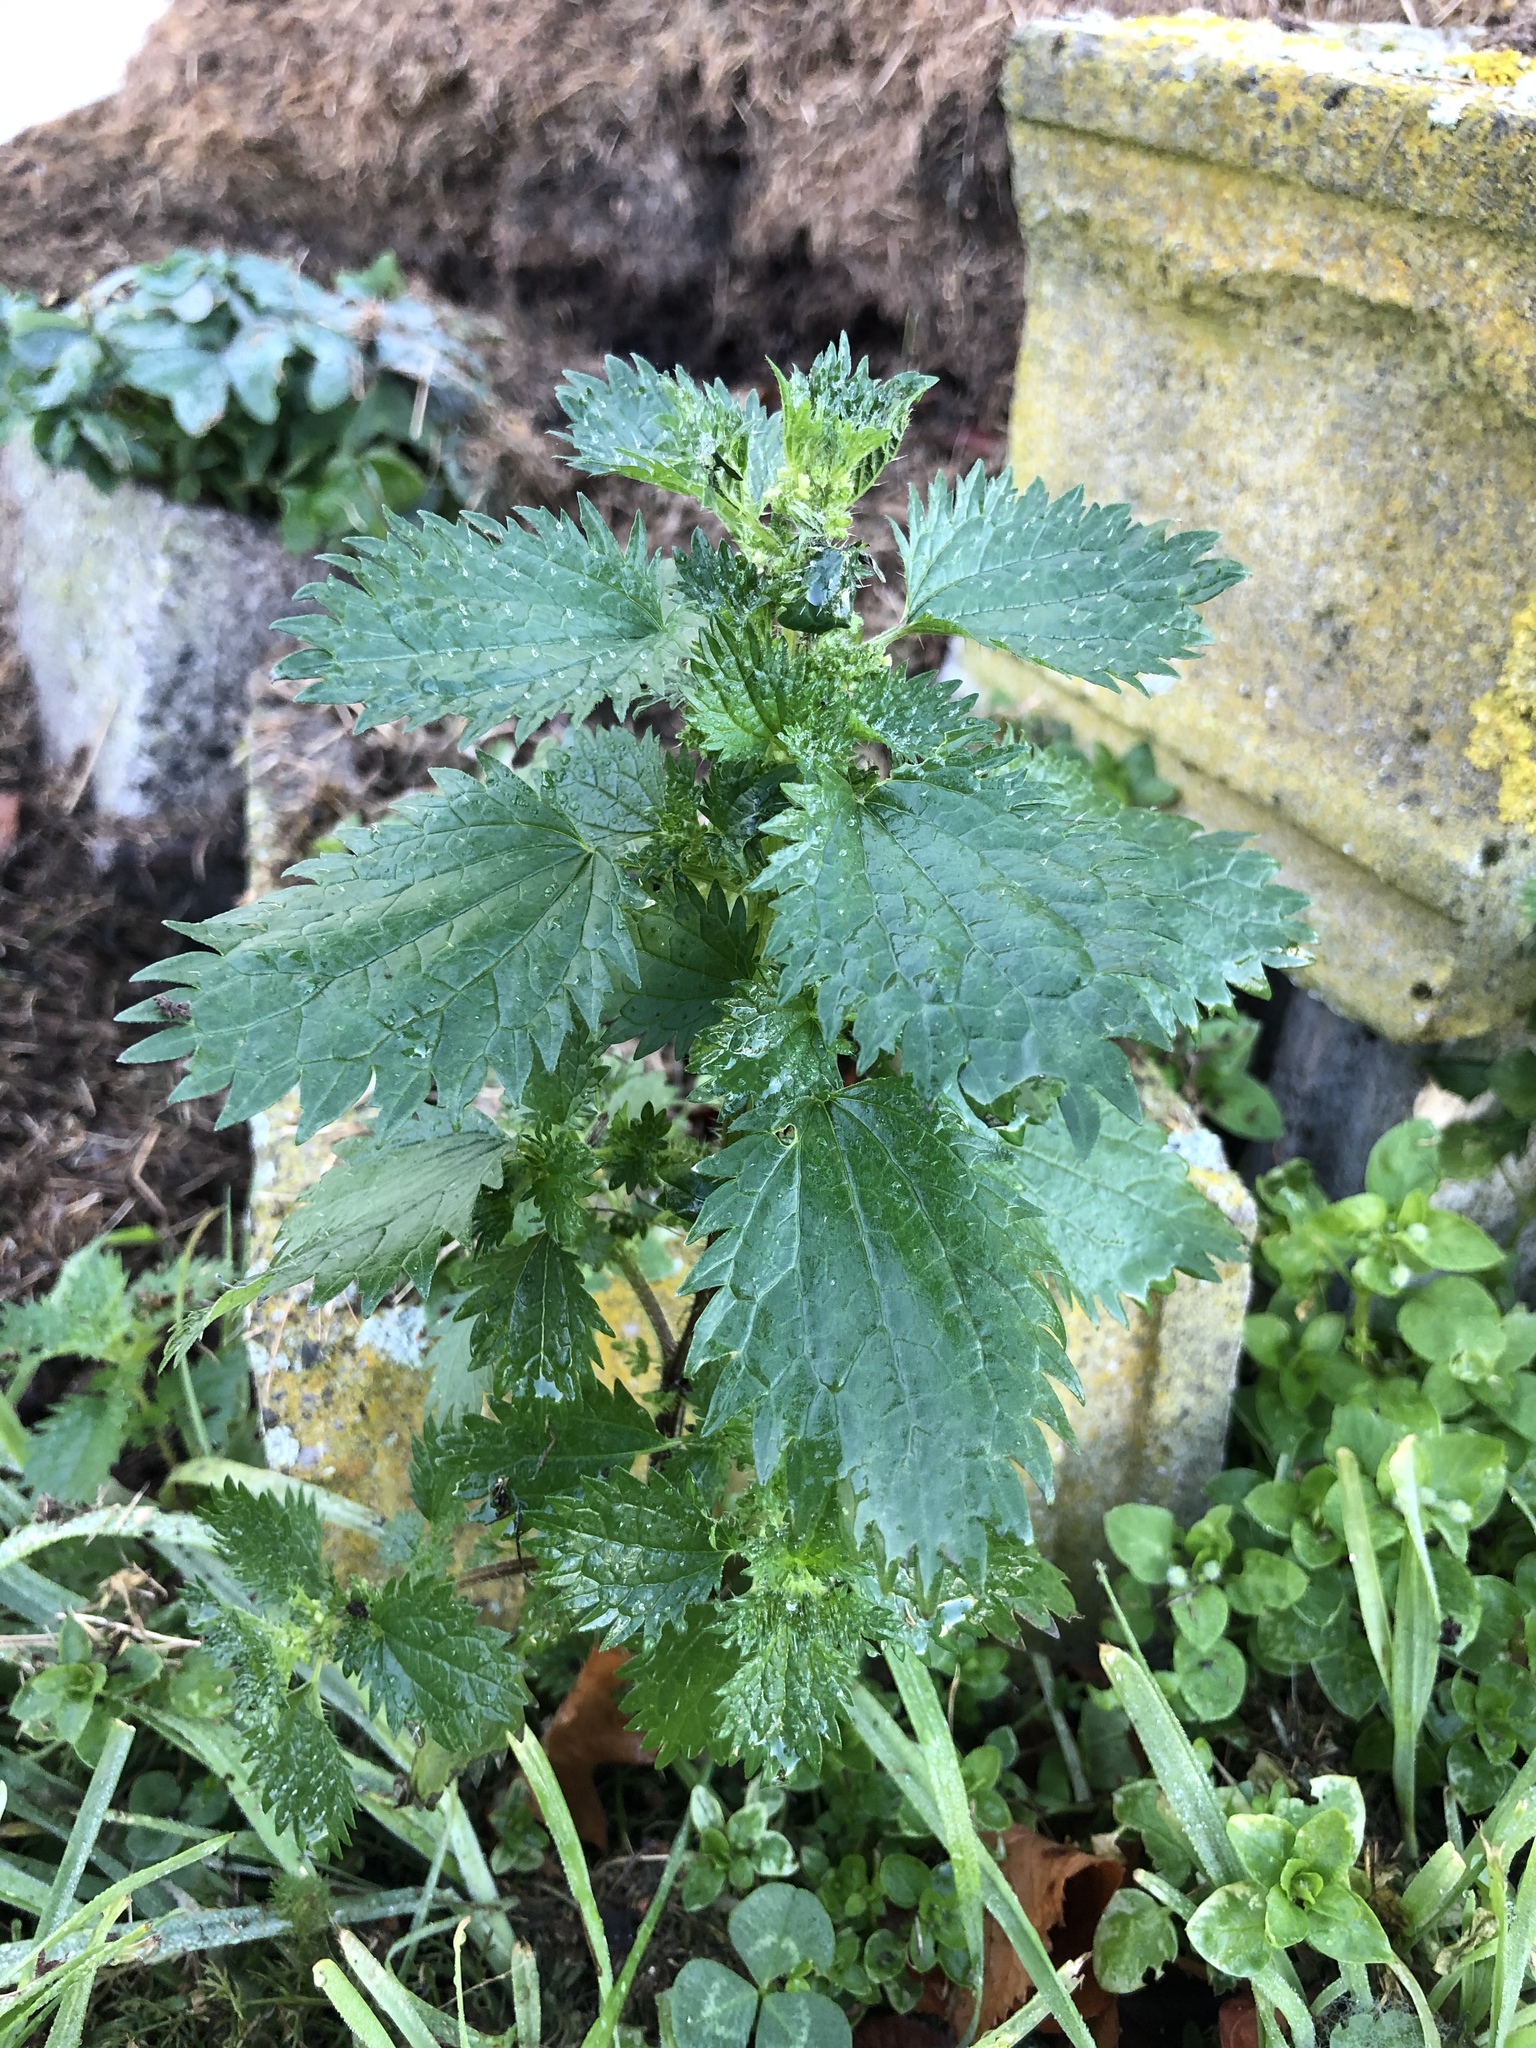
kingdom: Plantae
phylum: Tracheophyta
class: Magnoliopsida
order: Rosales
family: Urticaceae
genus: Urtica
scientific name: Urtica urens
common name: Dwarf nettle
